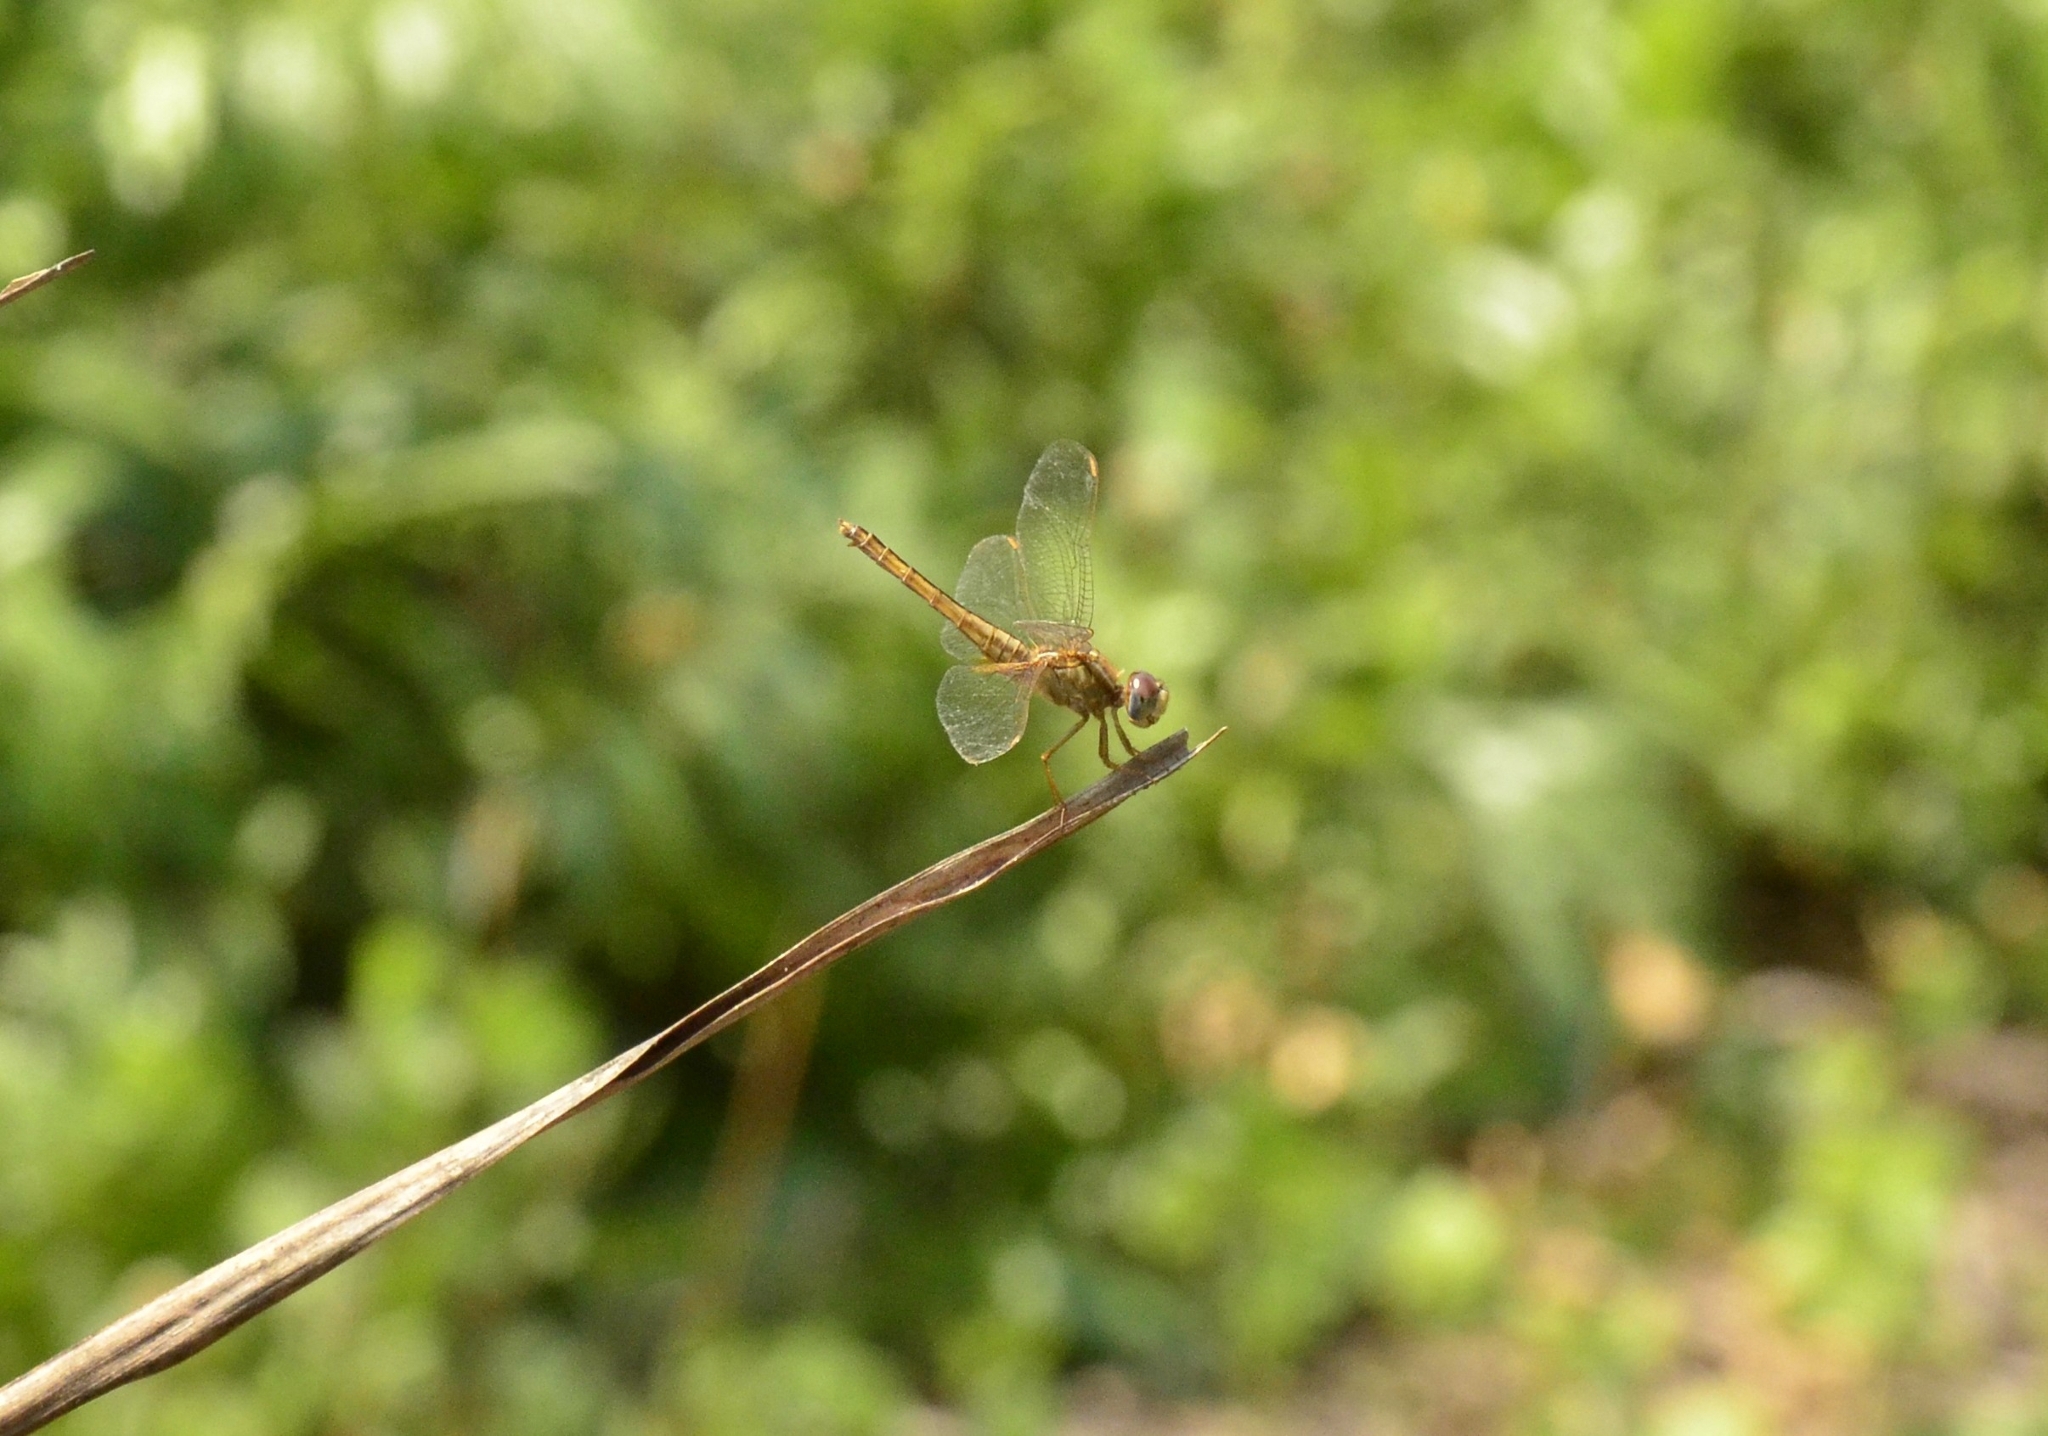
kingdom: Animalia
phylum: Arthropoda
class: Insecta
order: Odonata
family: Libellulidae
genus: Crocothemis
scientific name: Crocothemis servilia
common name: Scarlet skimmer
